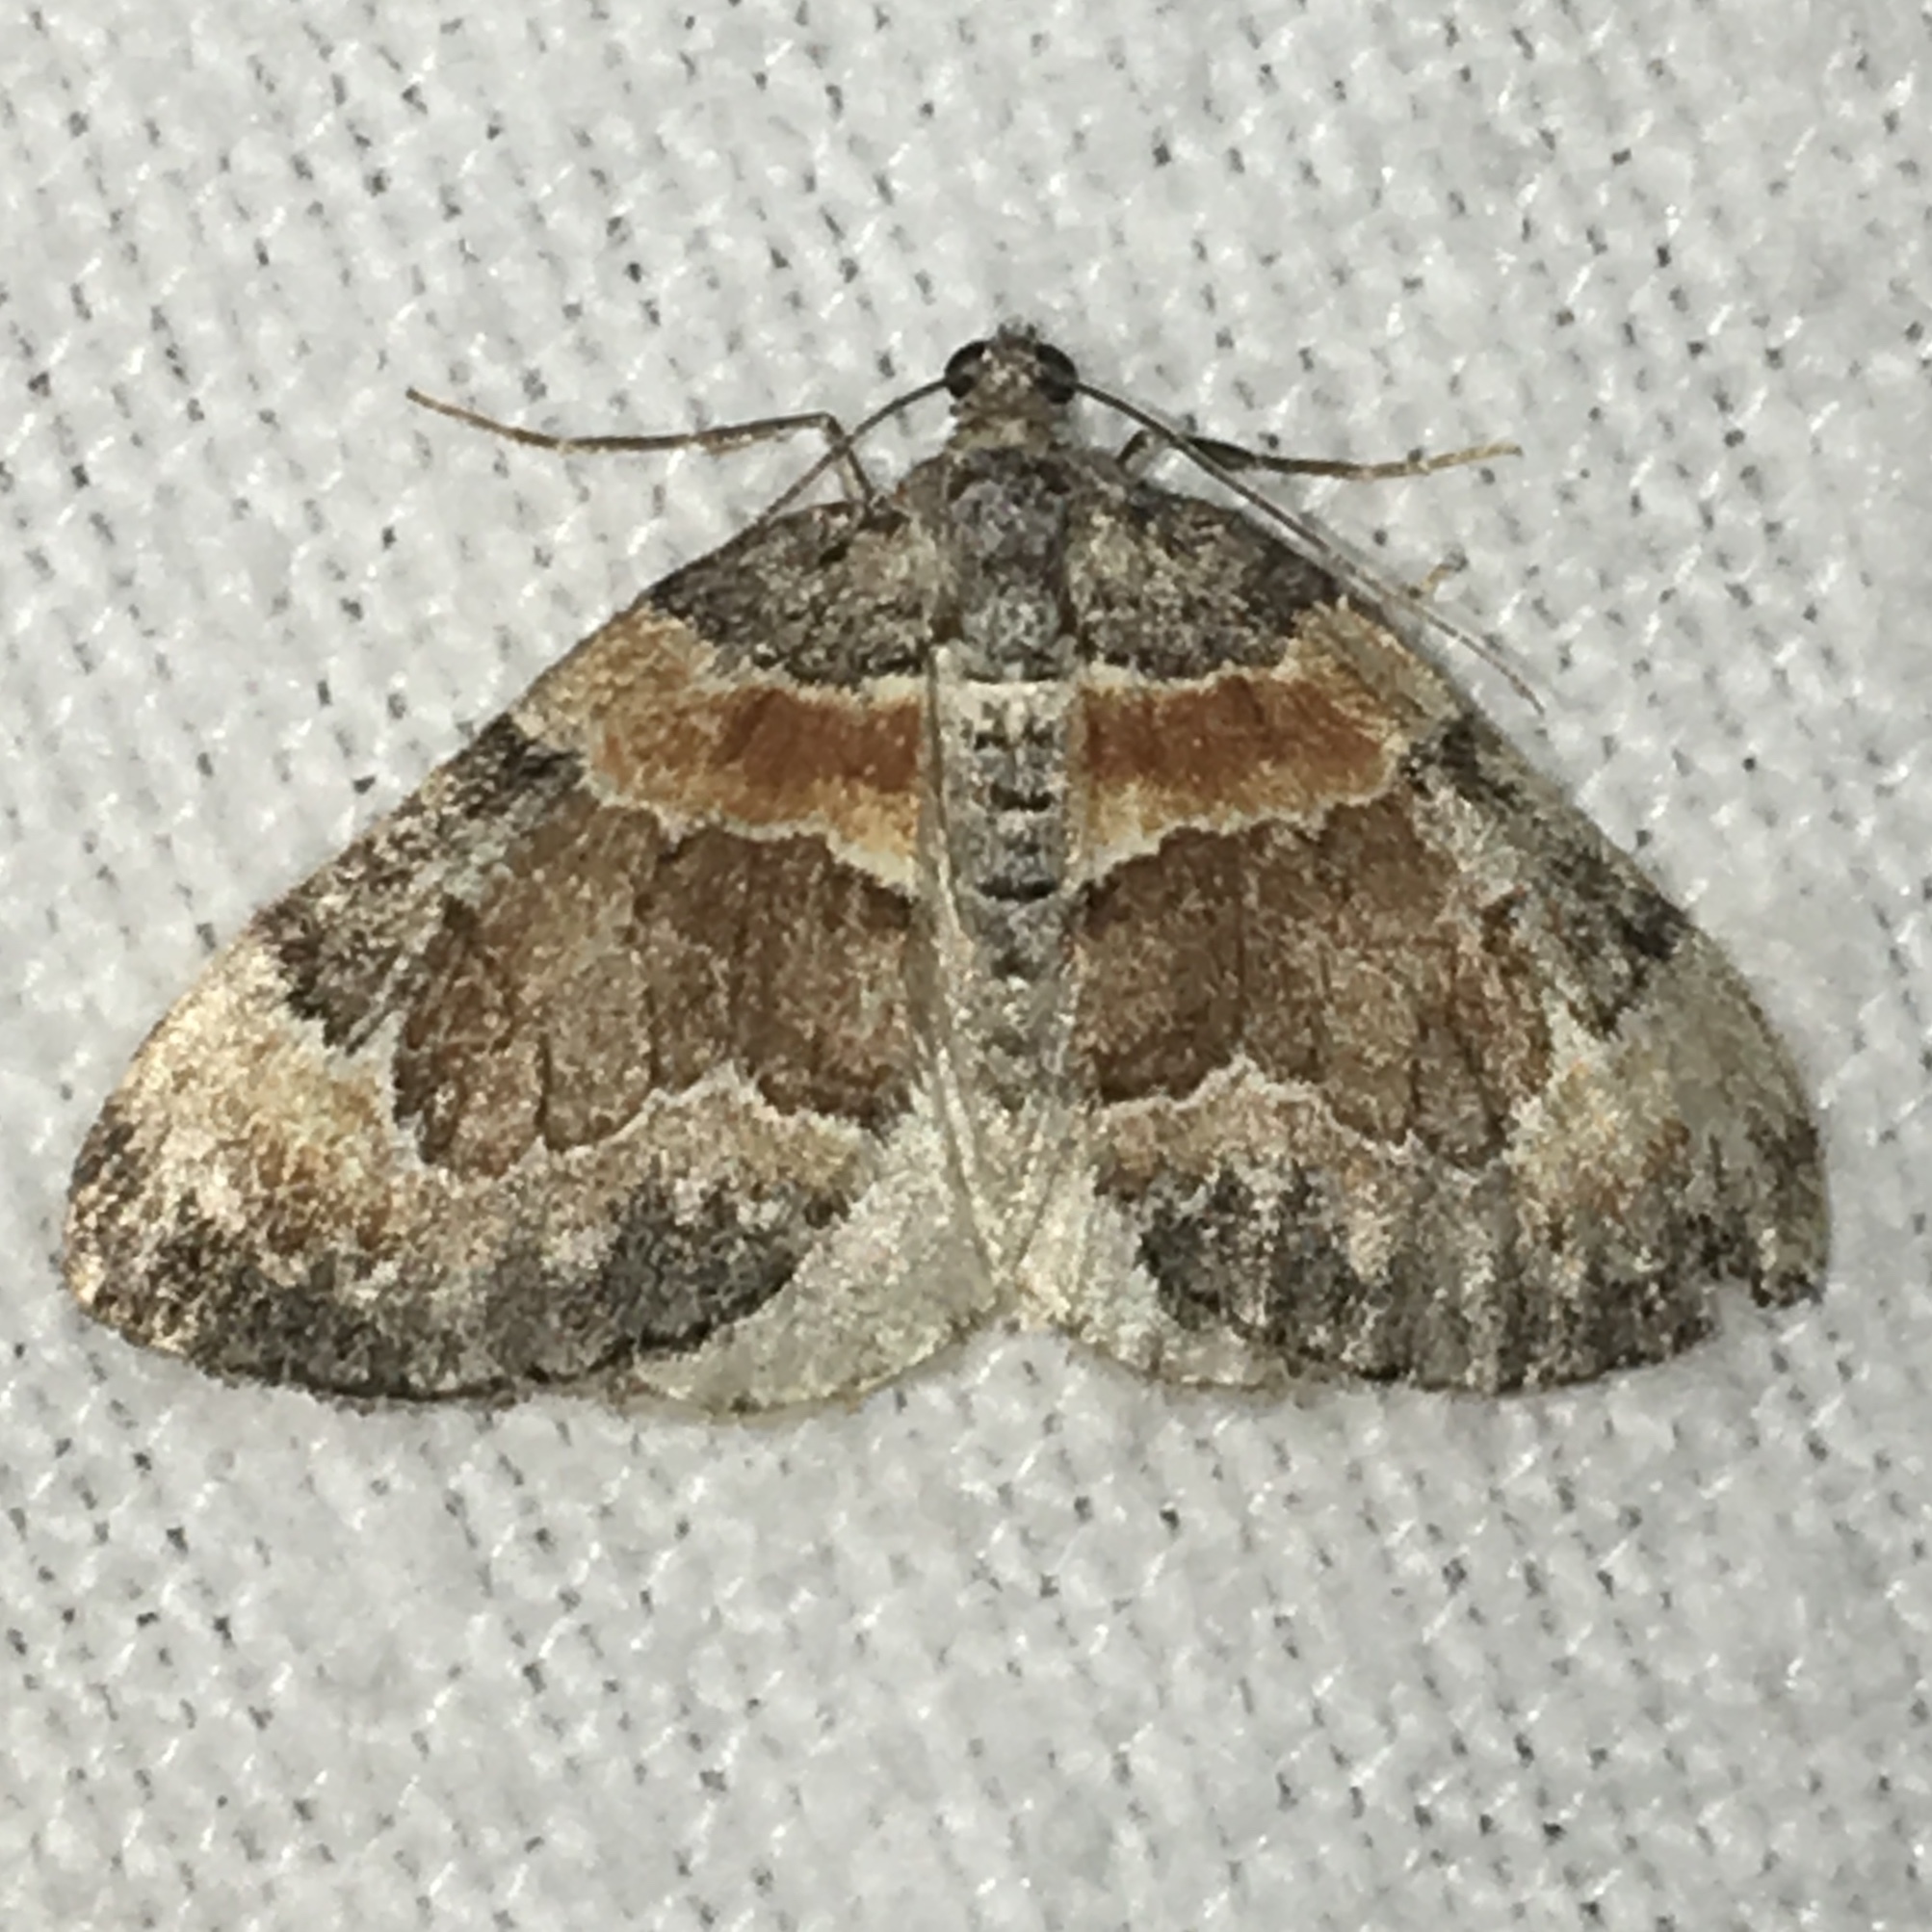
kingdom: Animalia
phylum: Arthropoda
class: Insecta
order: Lepidoptera
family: Geometridae
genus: Dysstroma
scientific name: Dysstroma hersiliata
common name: Orange-barred carpet
